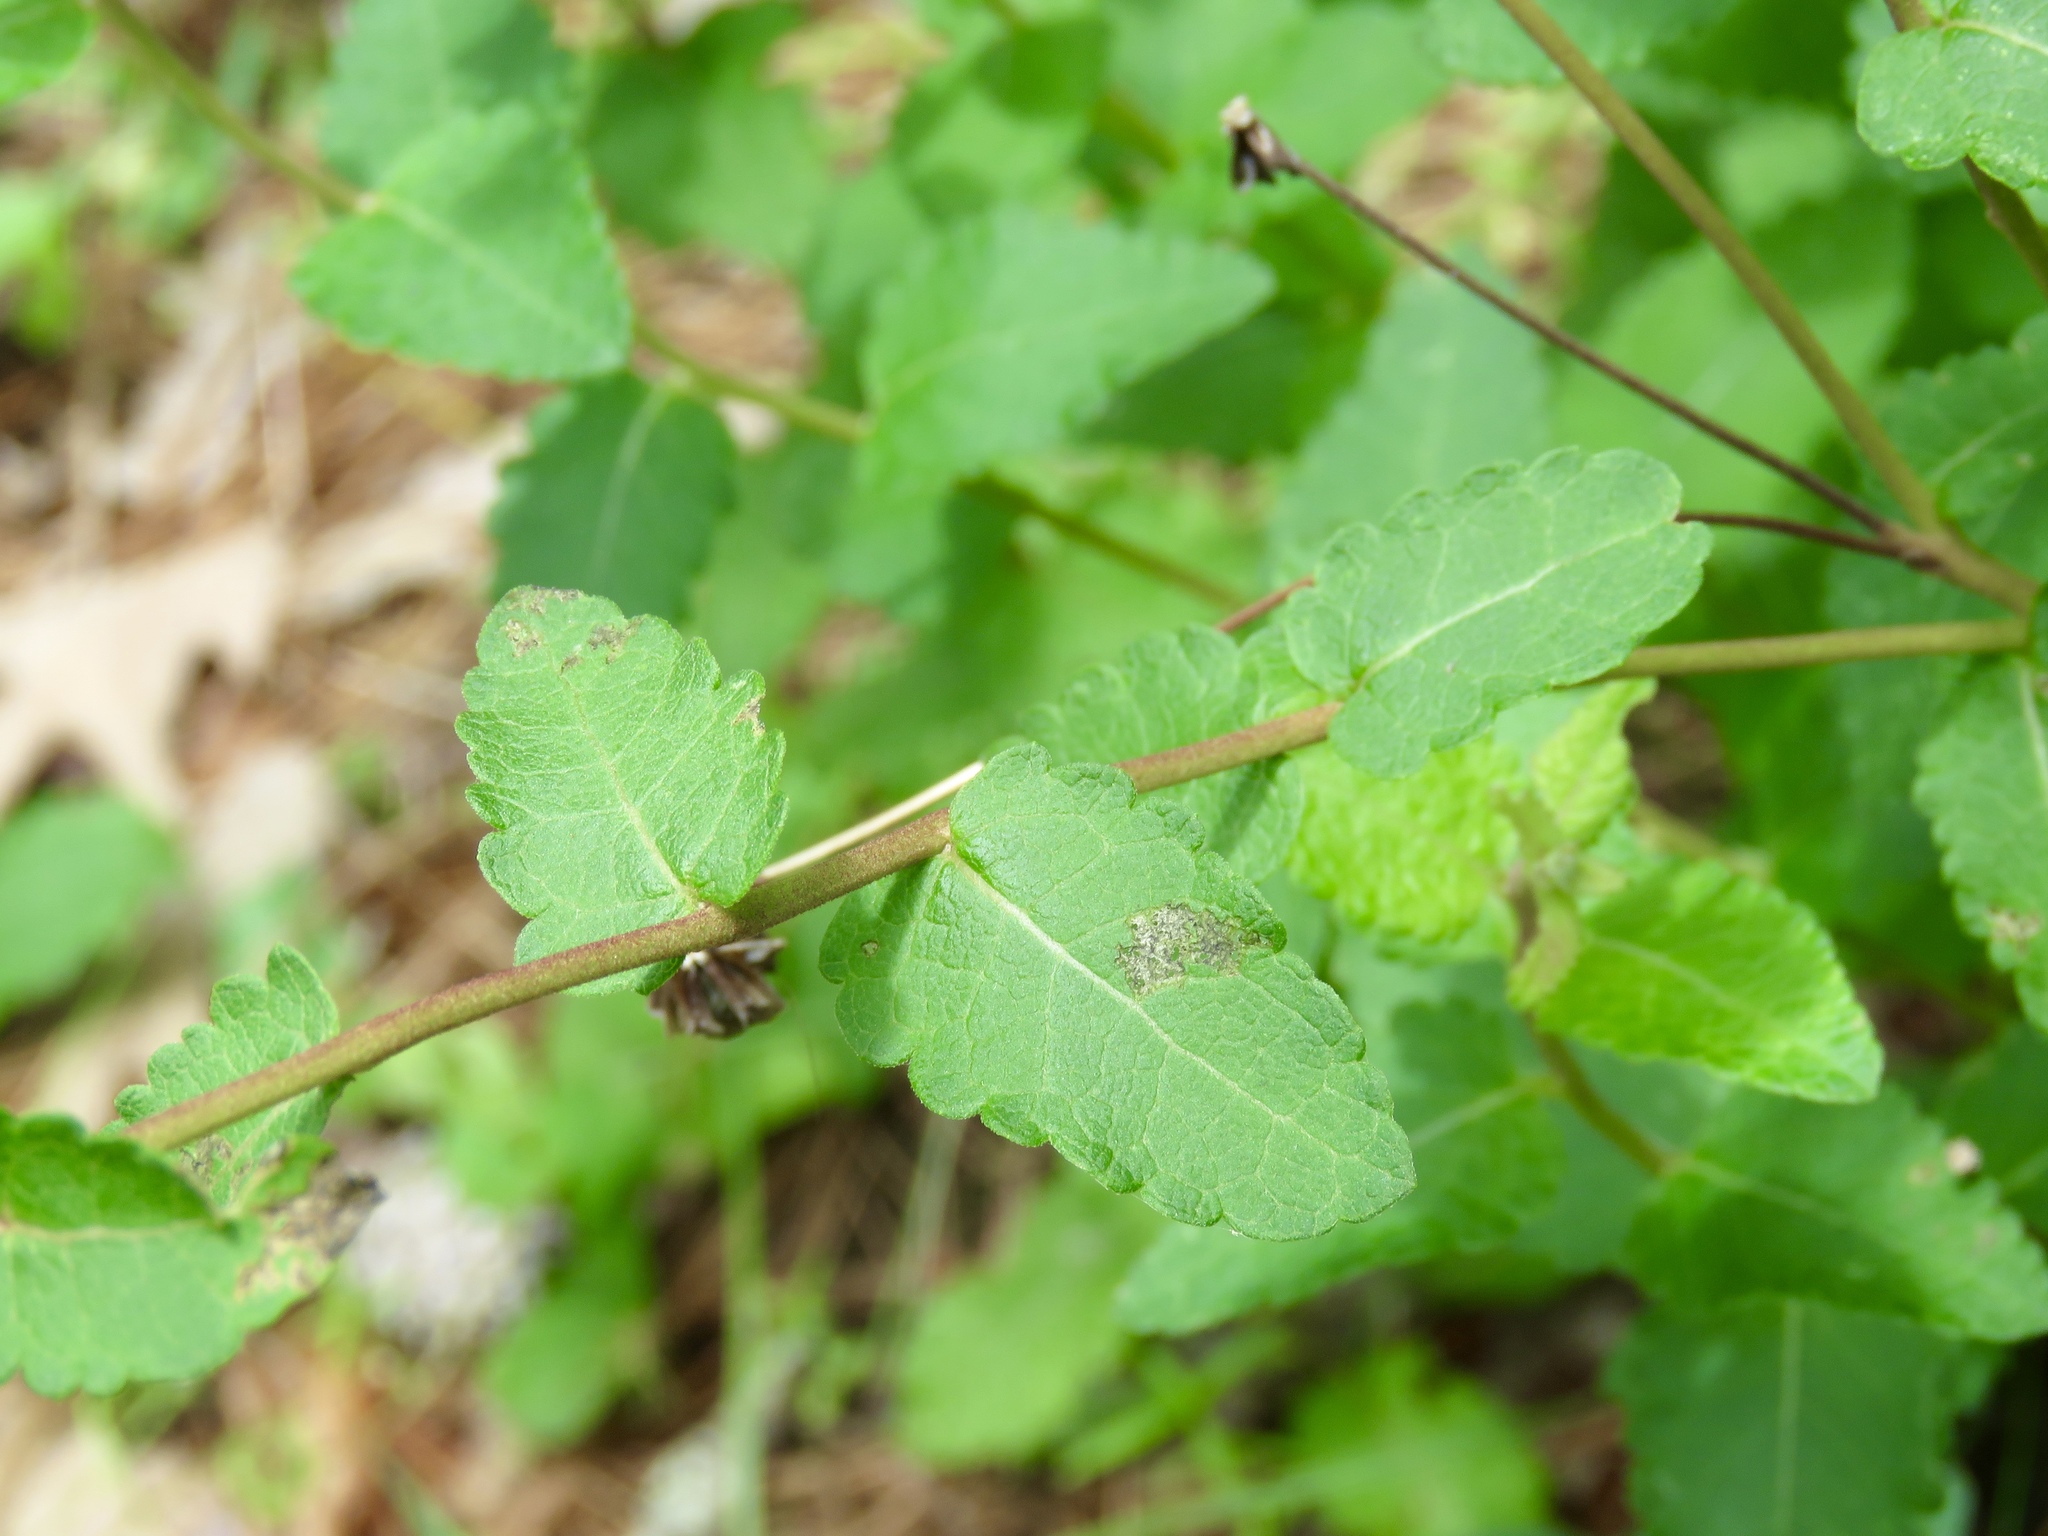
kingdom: Plantae
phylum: Tracheophyta
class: Magnoliopsida
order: Asterales
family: Asteraceae
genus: Berlandiera
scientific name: Berlandiera pumila
